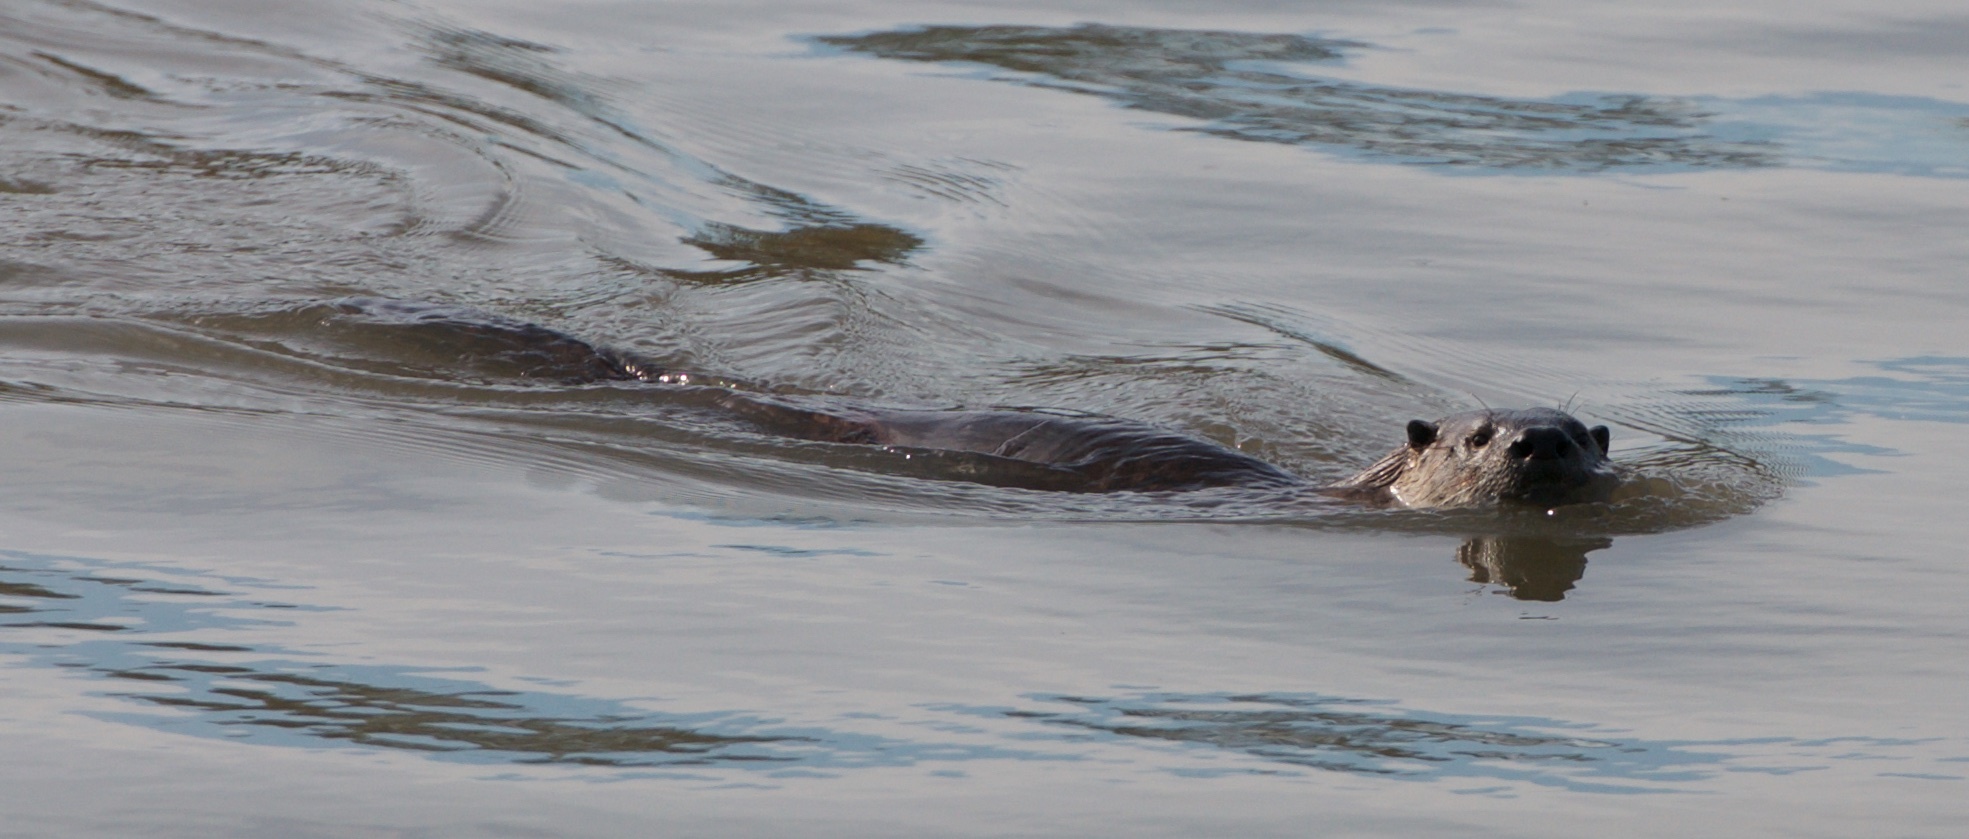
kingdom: Animalia
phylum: Chordata
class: Mammalia
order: Carnivora
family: Mustelidae
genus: Lontra
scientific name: Lontra canadensis
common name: North american river otter
